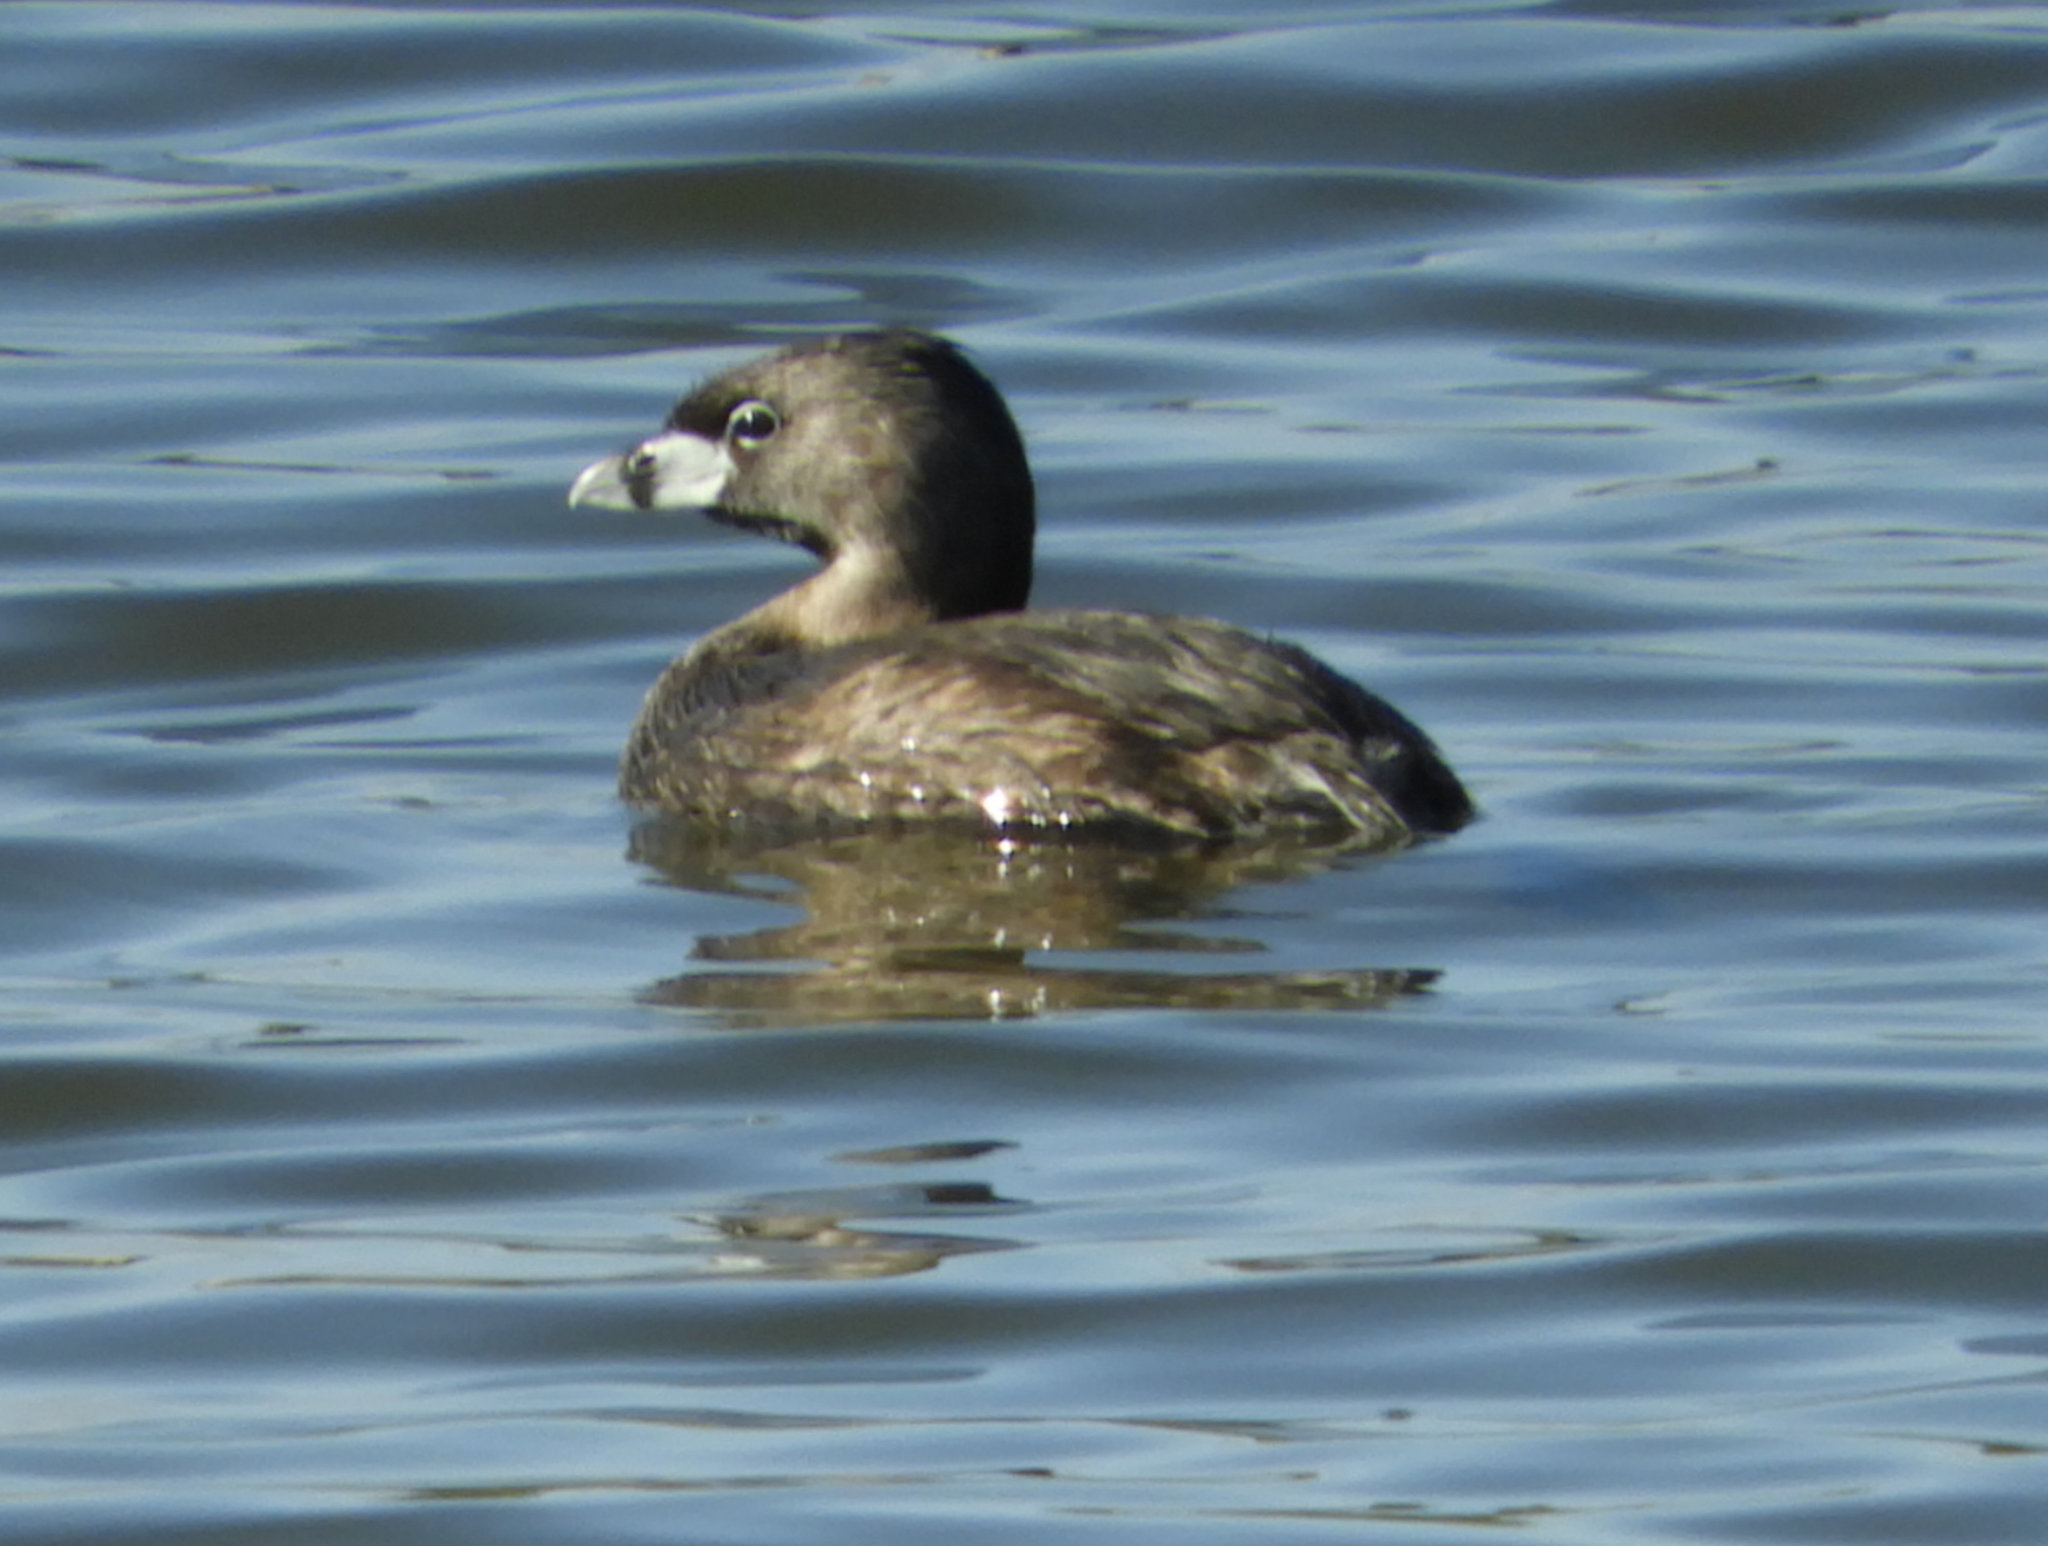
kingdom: Animalia
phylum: Chordata
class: Aves
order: Podicipediformes
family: Podicipedidae
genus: Podilymbus
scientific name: Podilymbus podiceps
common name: Pied-billed grebe
